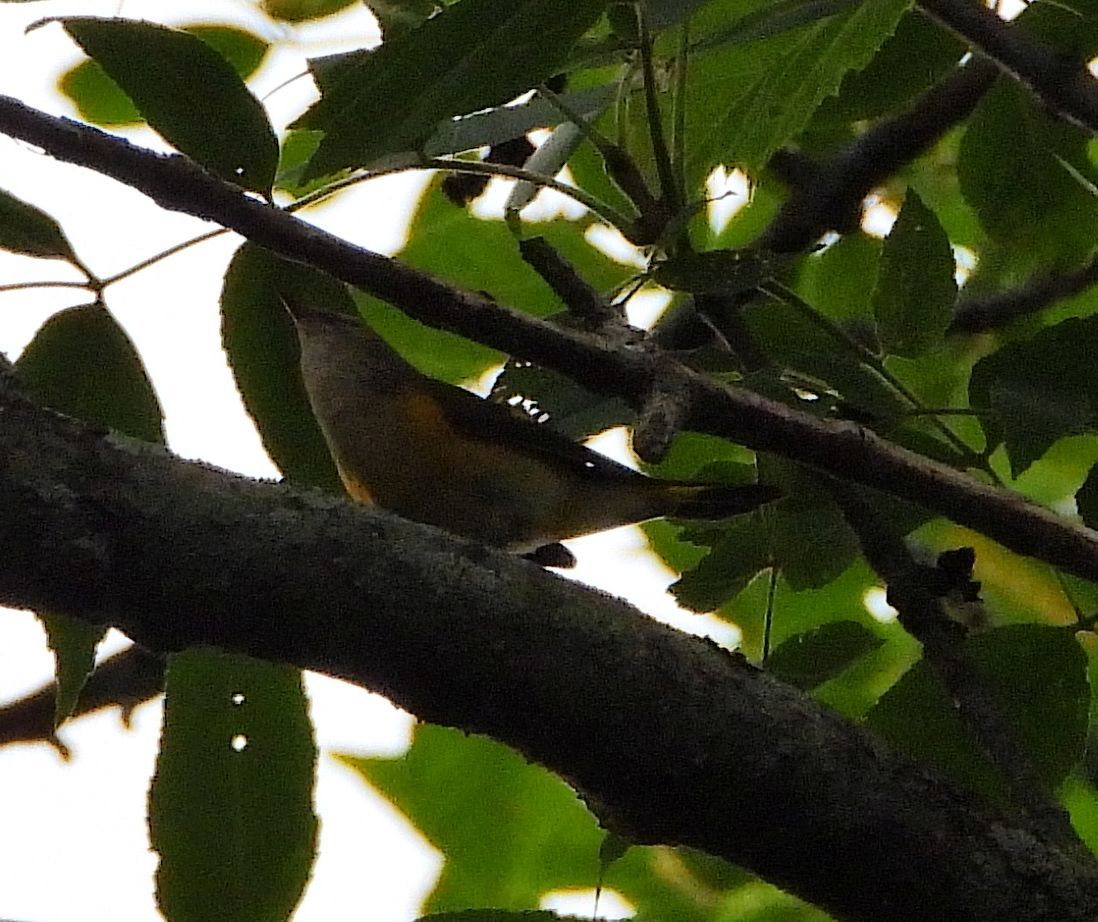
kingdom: Animalia
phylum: Chordata
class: Aves
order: Passeriformes
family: Parulidae
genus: Setophaga
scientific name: Setophaga ruticilla
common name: American redstart
